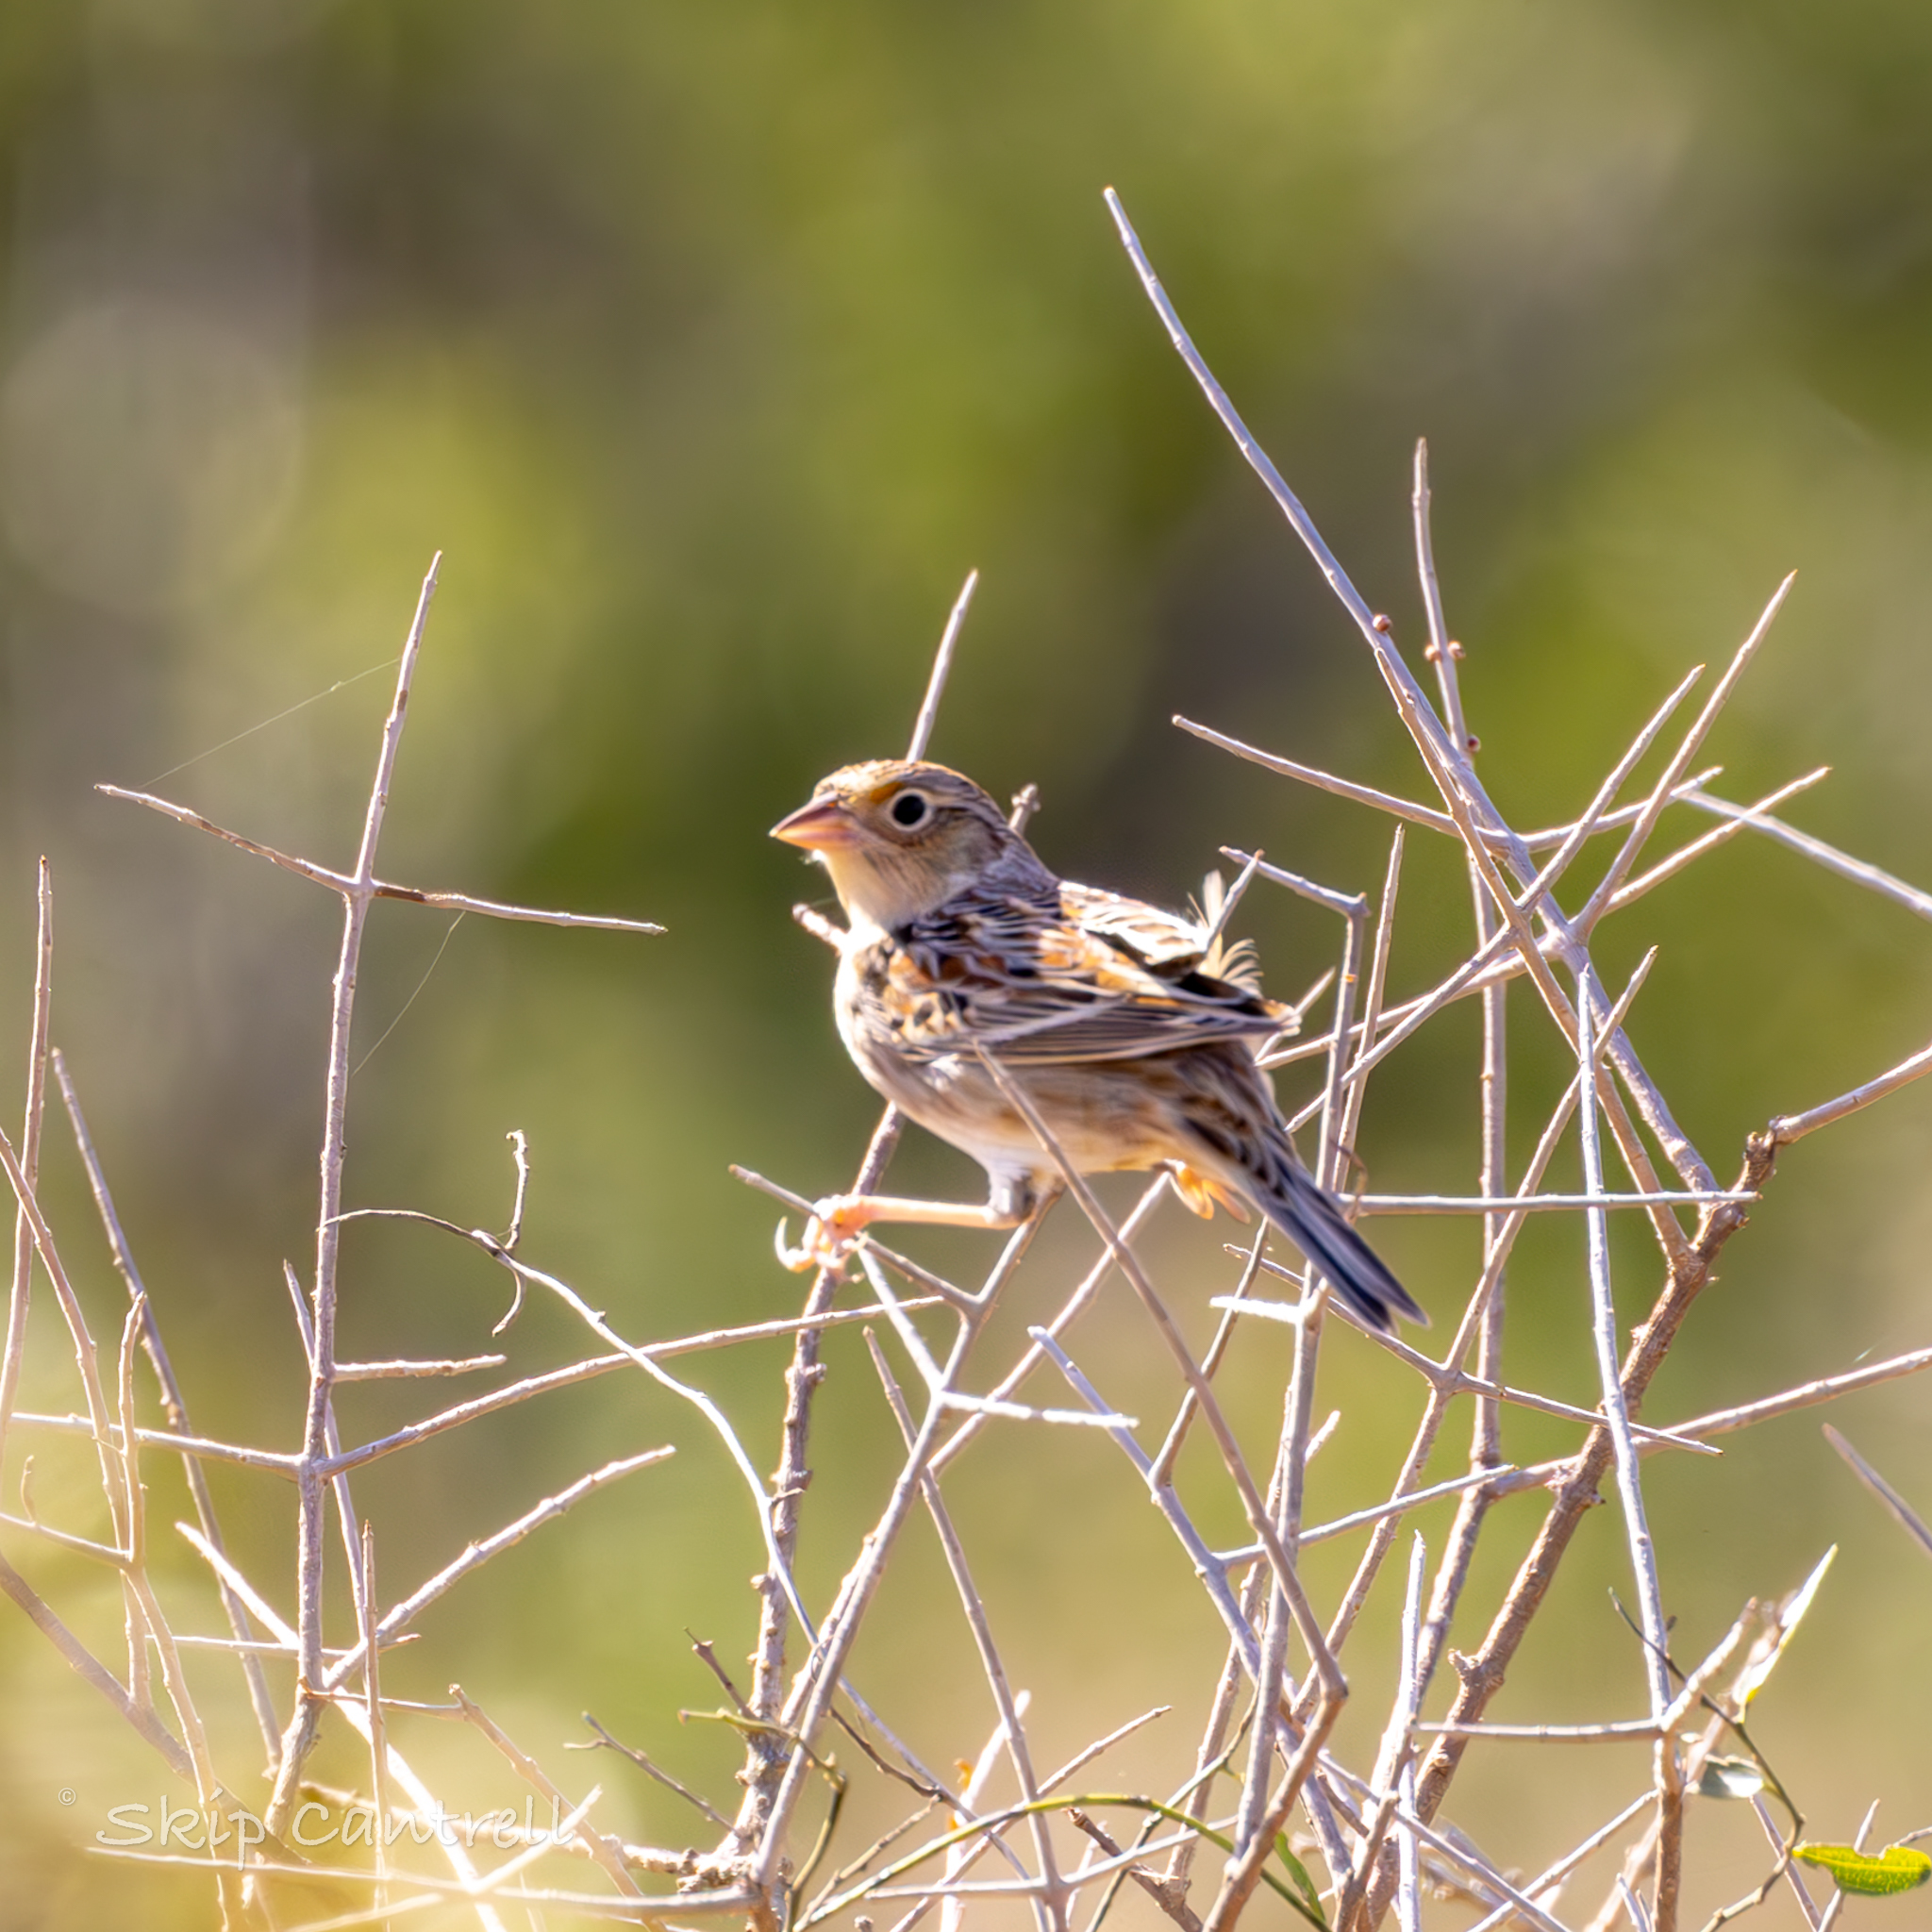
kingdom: Animalia
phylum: Chordata
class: Aves
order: Passeriformes
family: Passerellidae
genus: Ammodramus
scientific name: Ammodramus savannarum
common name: Grasshopper sparrow
